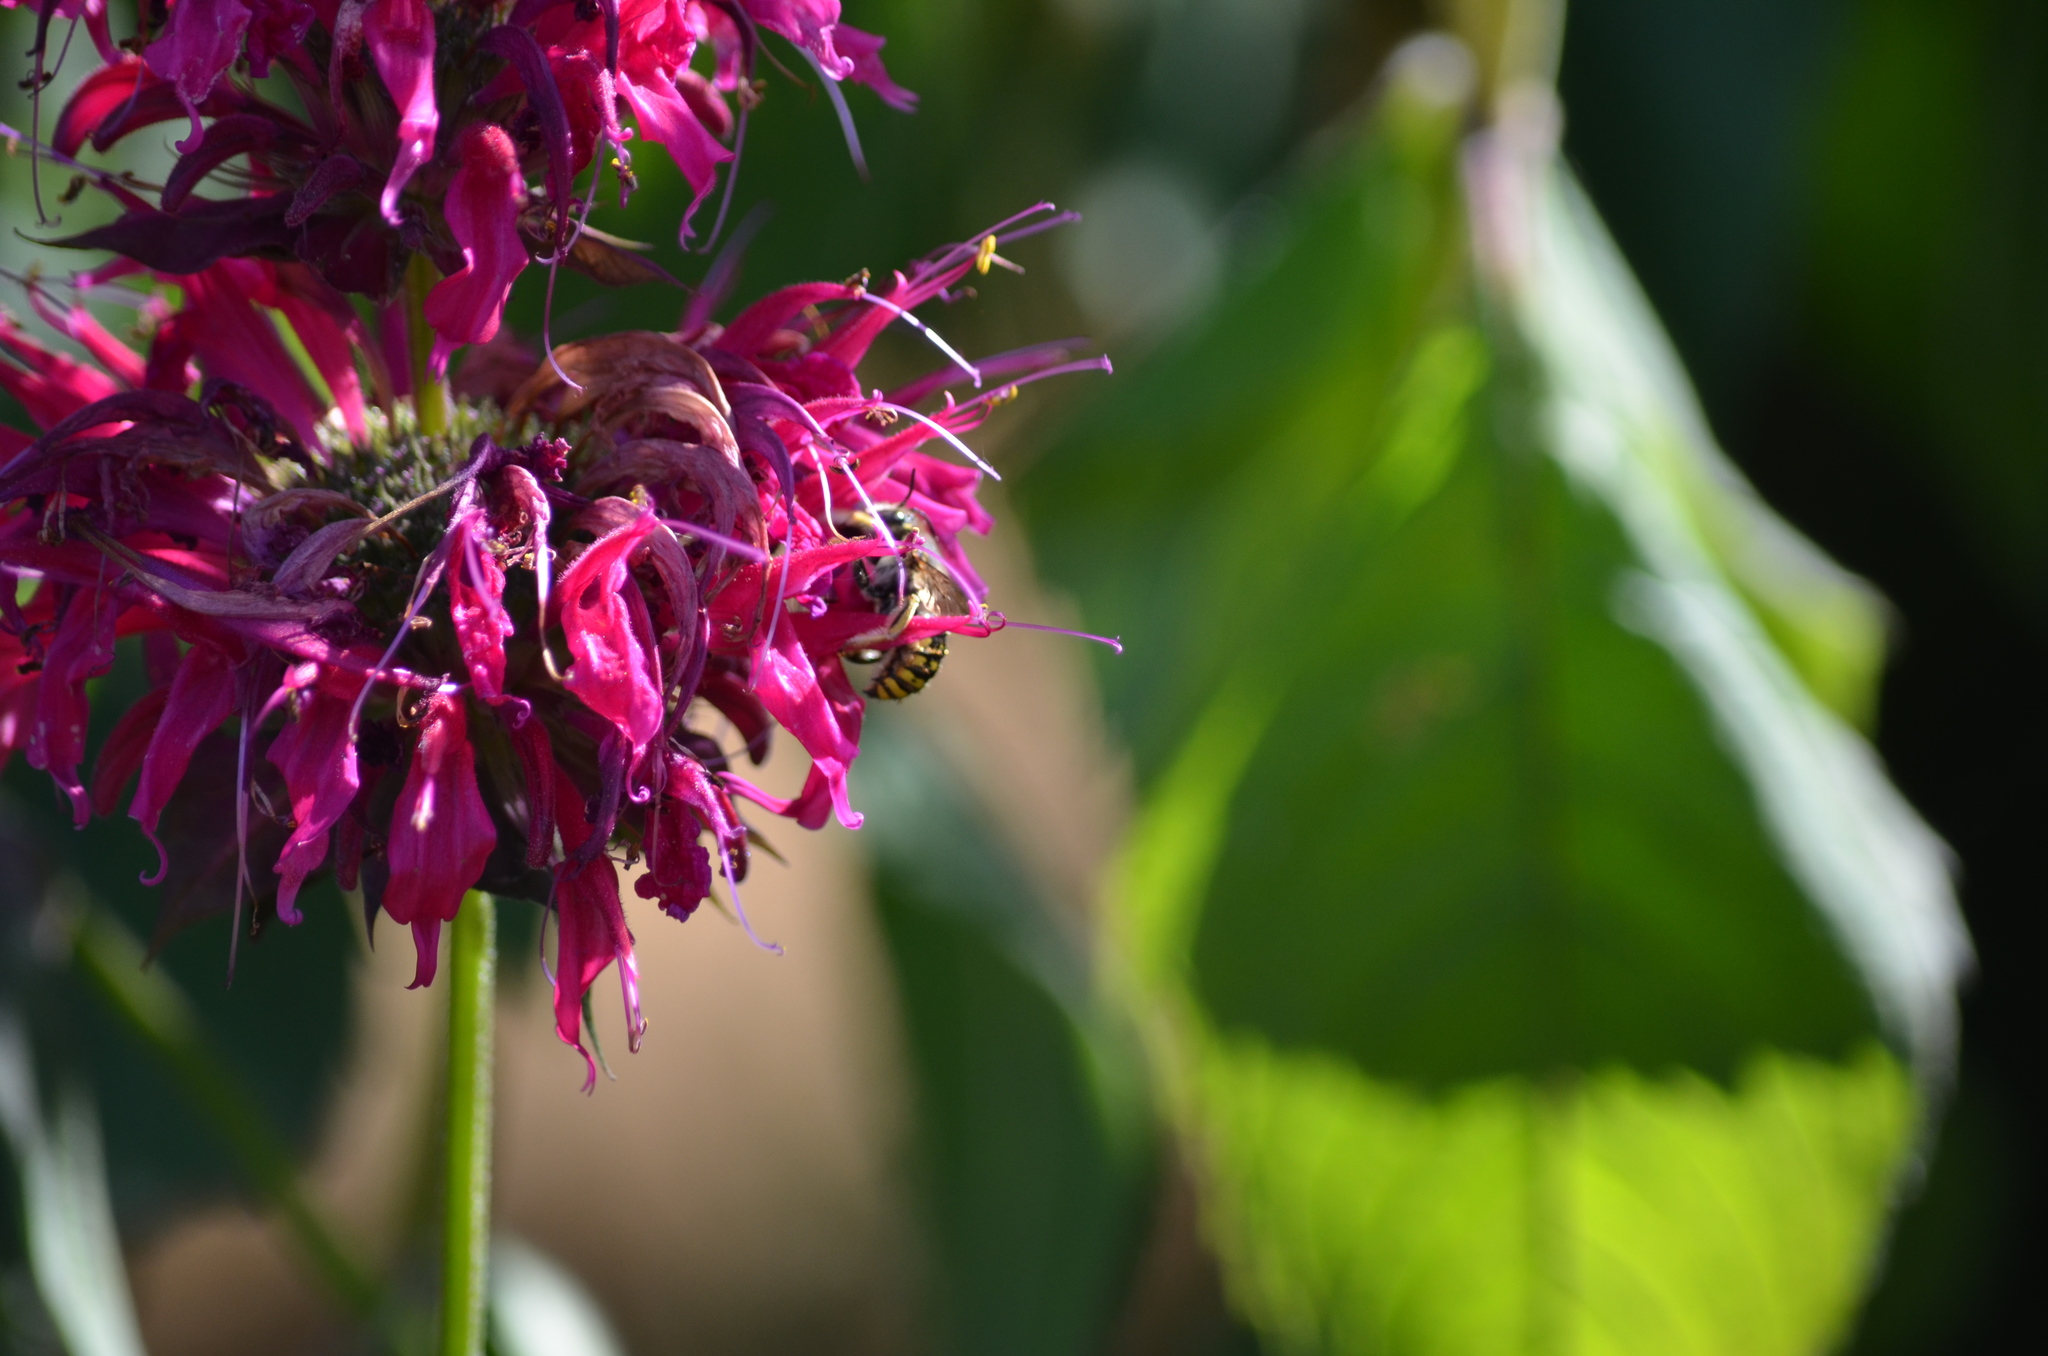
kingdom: Animalia
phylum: Arthropoda
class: Insecta
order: Hymenoptera
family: Megachilidae
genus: Anthidium
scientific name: Anthidium manicatum
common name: Wool carder bee
